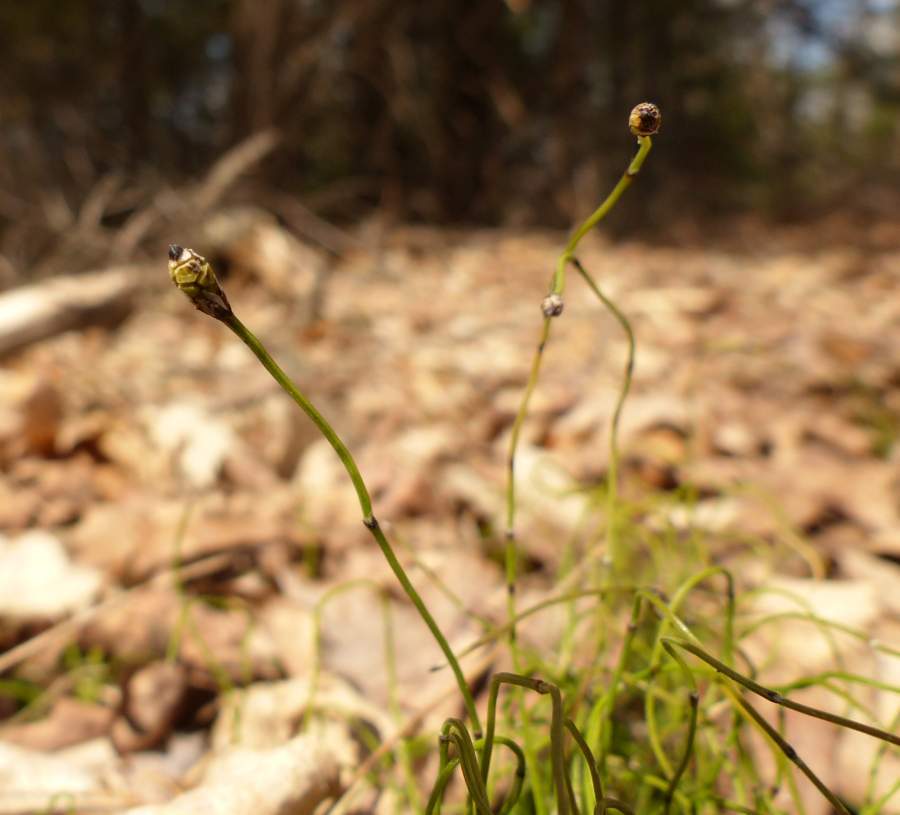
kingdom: Plantae
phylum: Tracheophyta
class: Polypodiopsida
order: Equisetales
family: Equisetaceae
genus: Equisetum
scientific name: Equisetum scirpoides
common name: Delicate horsetail
